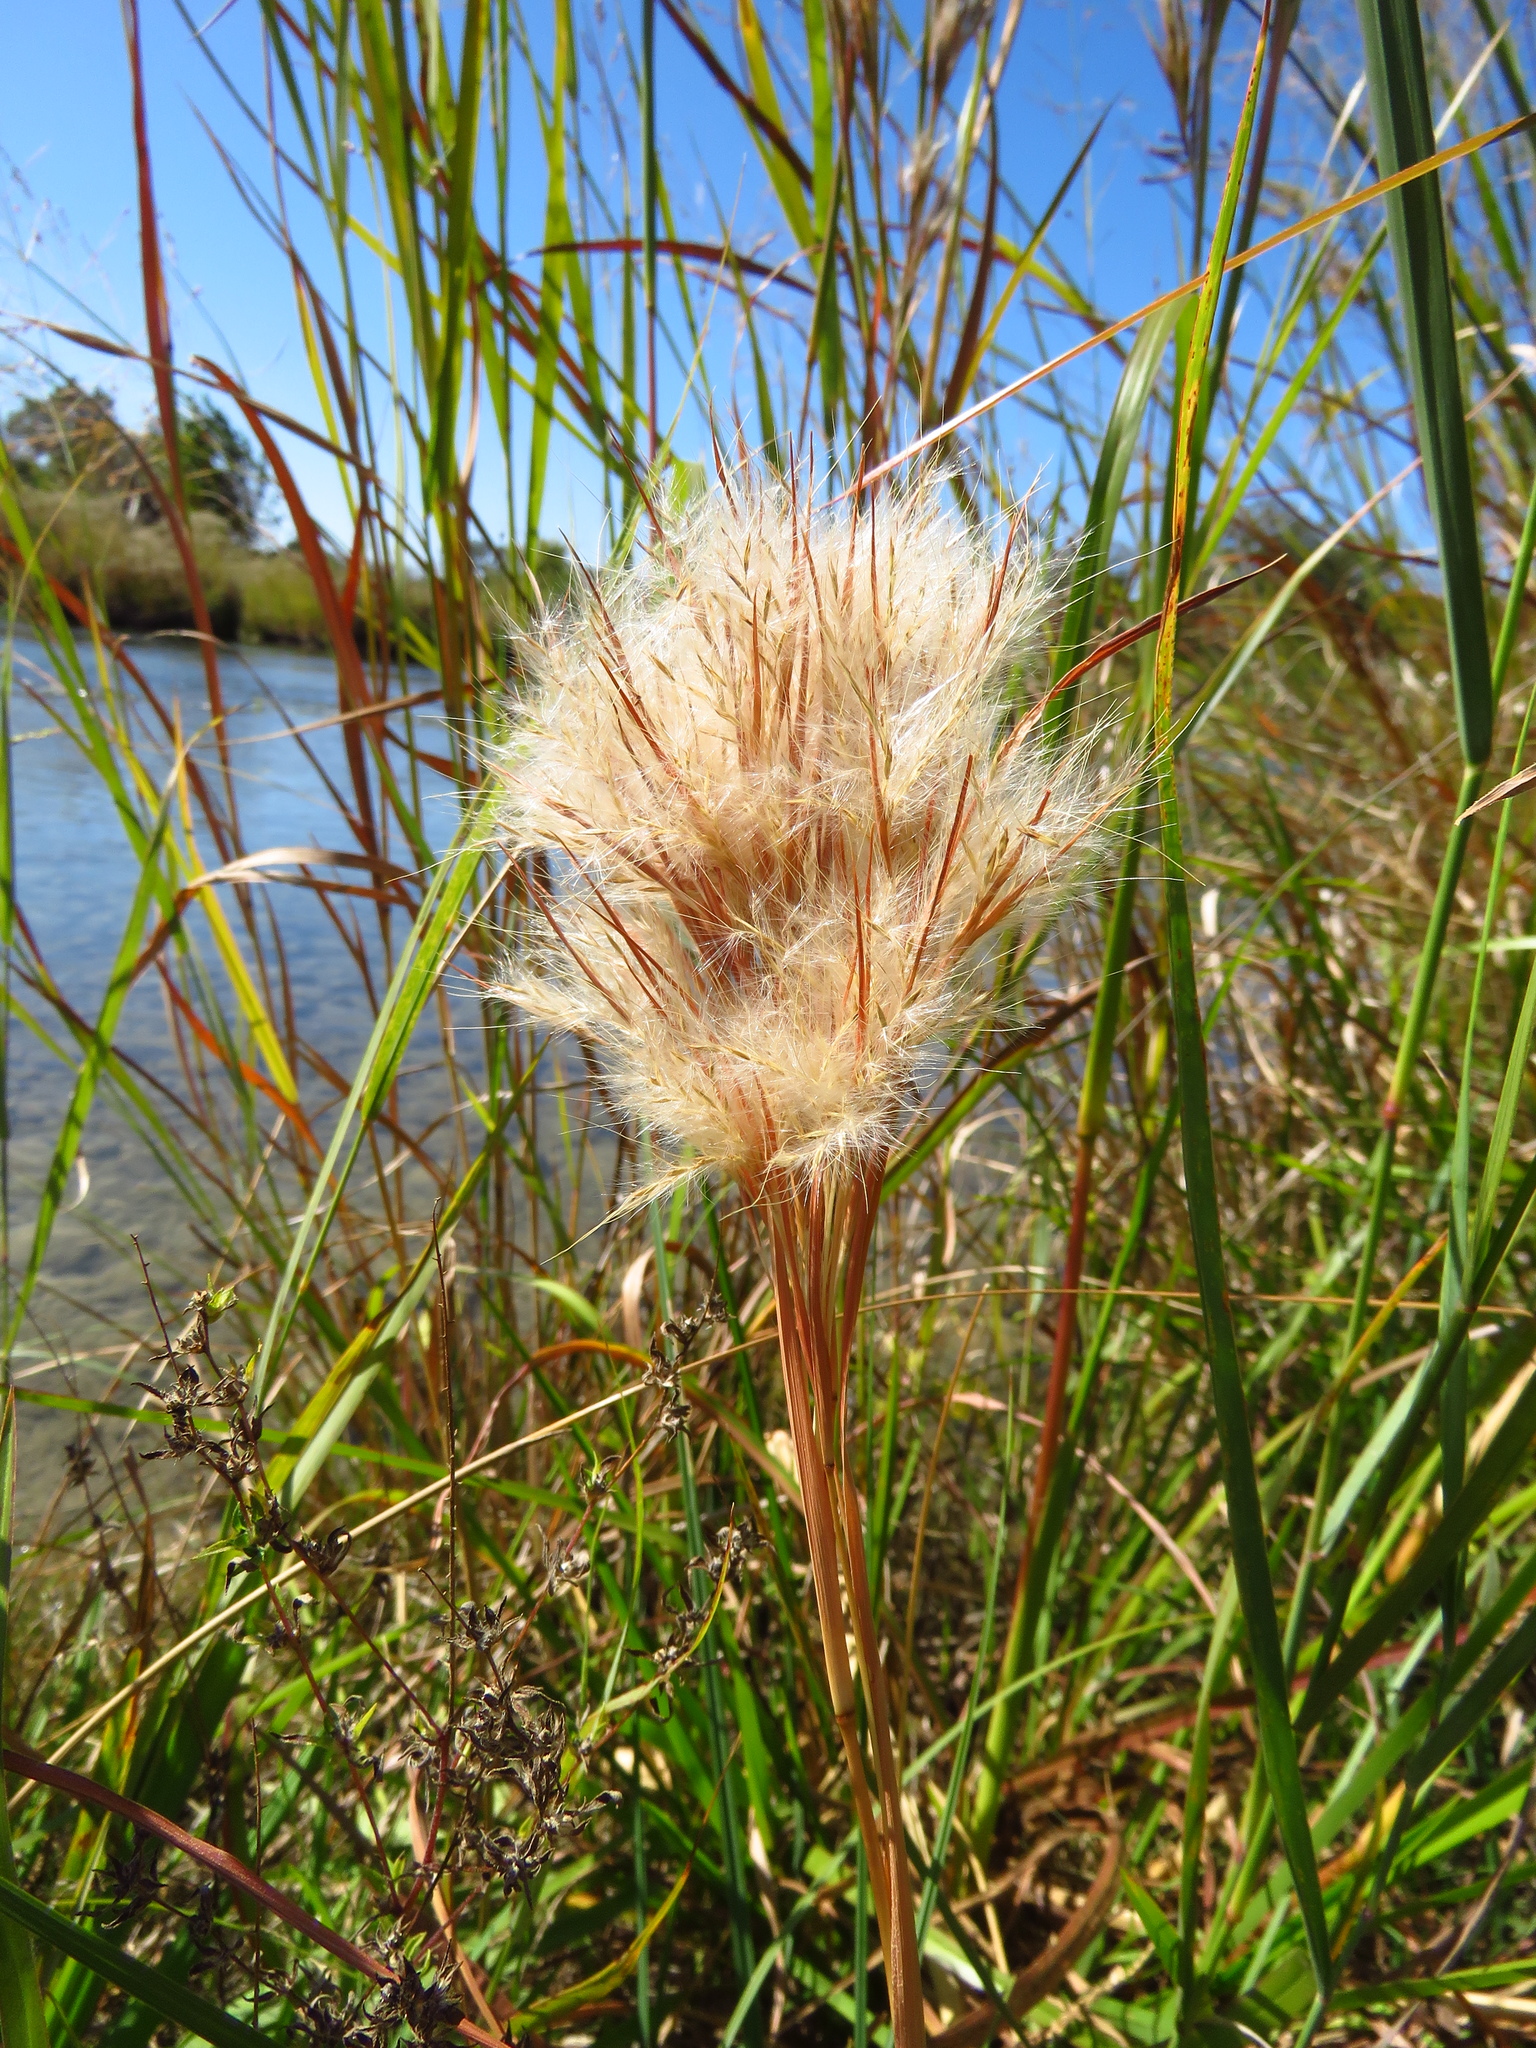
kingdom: Plantae
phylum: Tracheophyta
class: Liliopsida
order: Poales
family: Poaceae
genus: Andropogon
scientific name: Andropogon tenuispatheus
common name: Bushy bluestem
